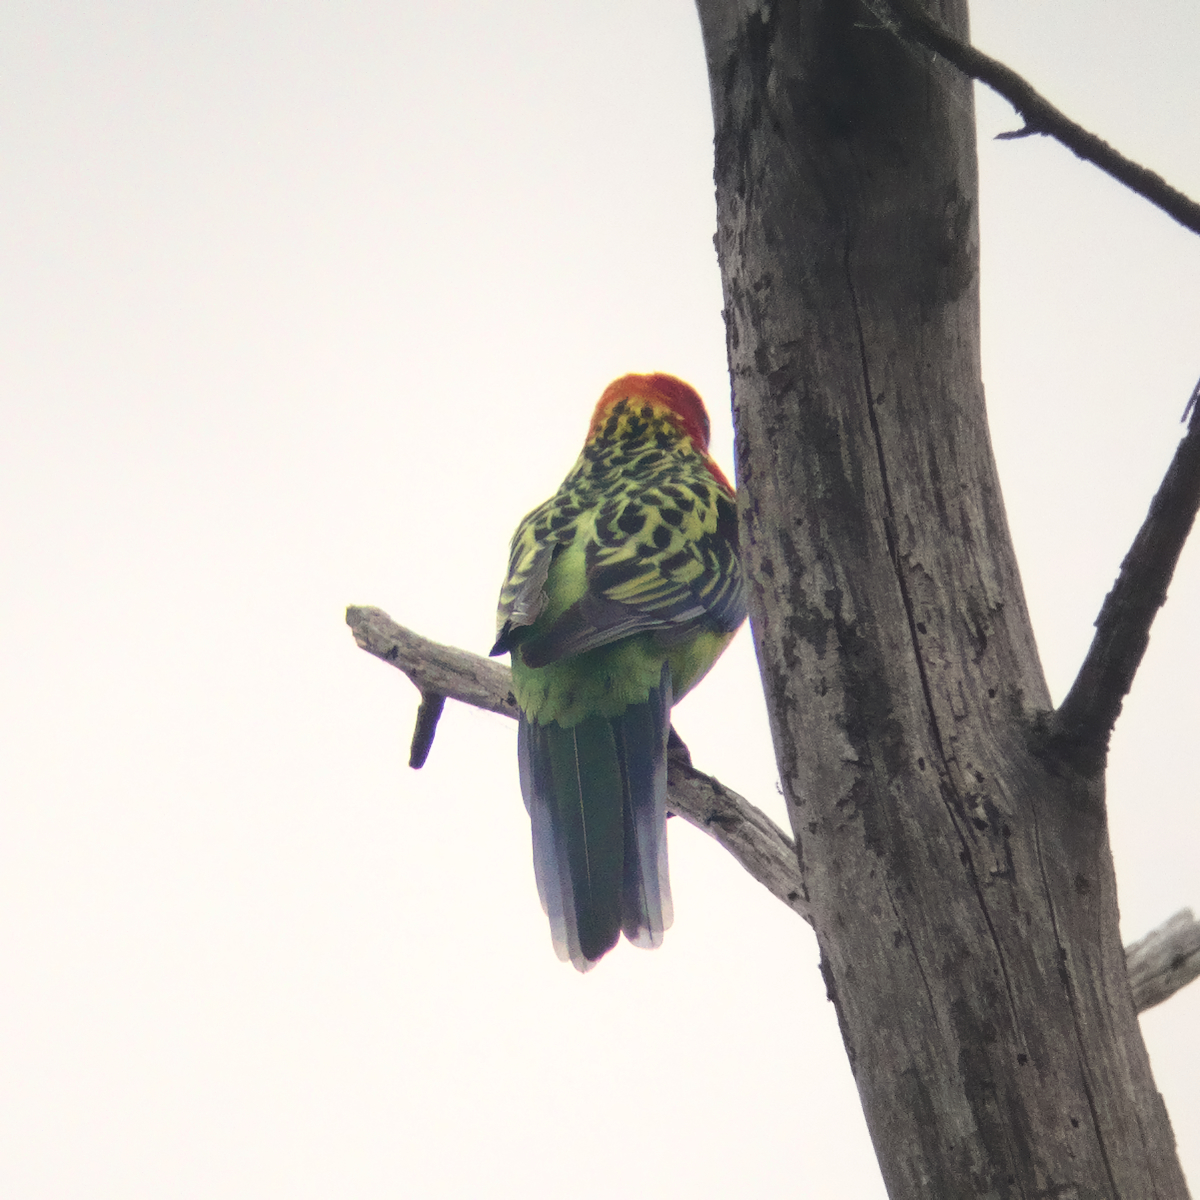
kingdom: Animalia
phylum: Chordata
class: Aves
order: Psittaciformes
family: Psittacidae
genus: Platycercus
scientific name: Platycercus eximius
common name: Eastern rosella
